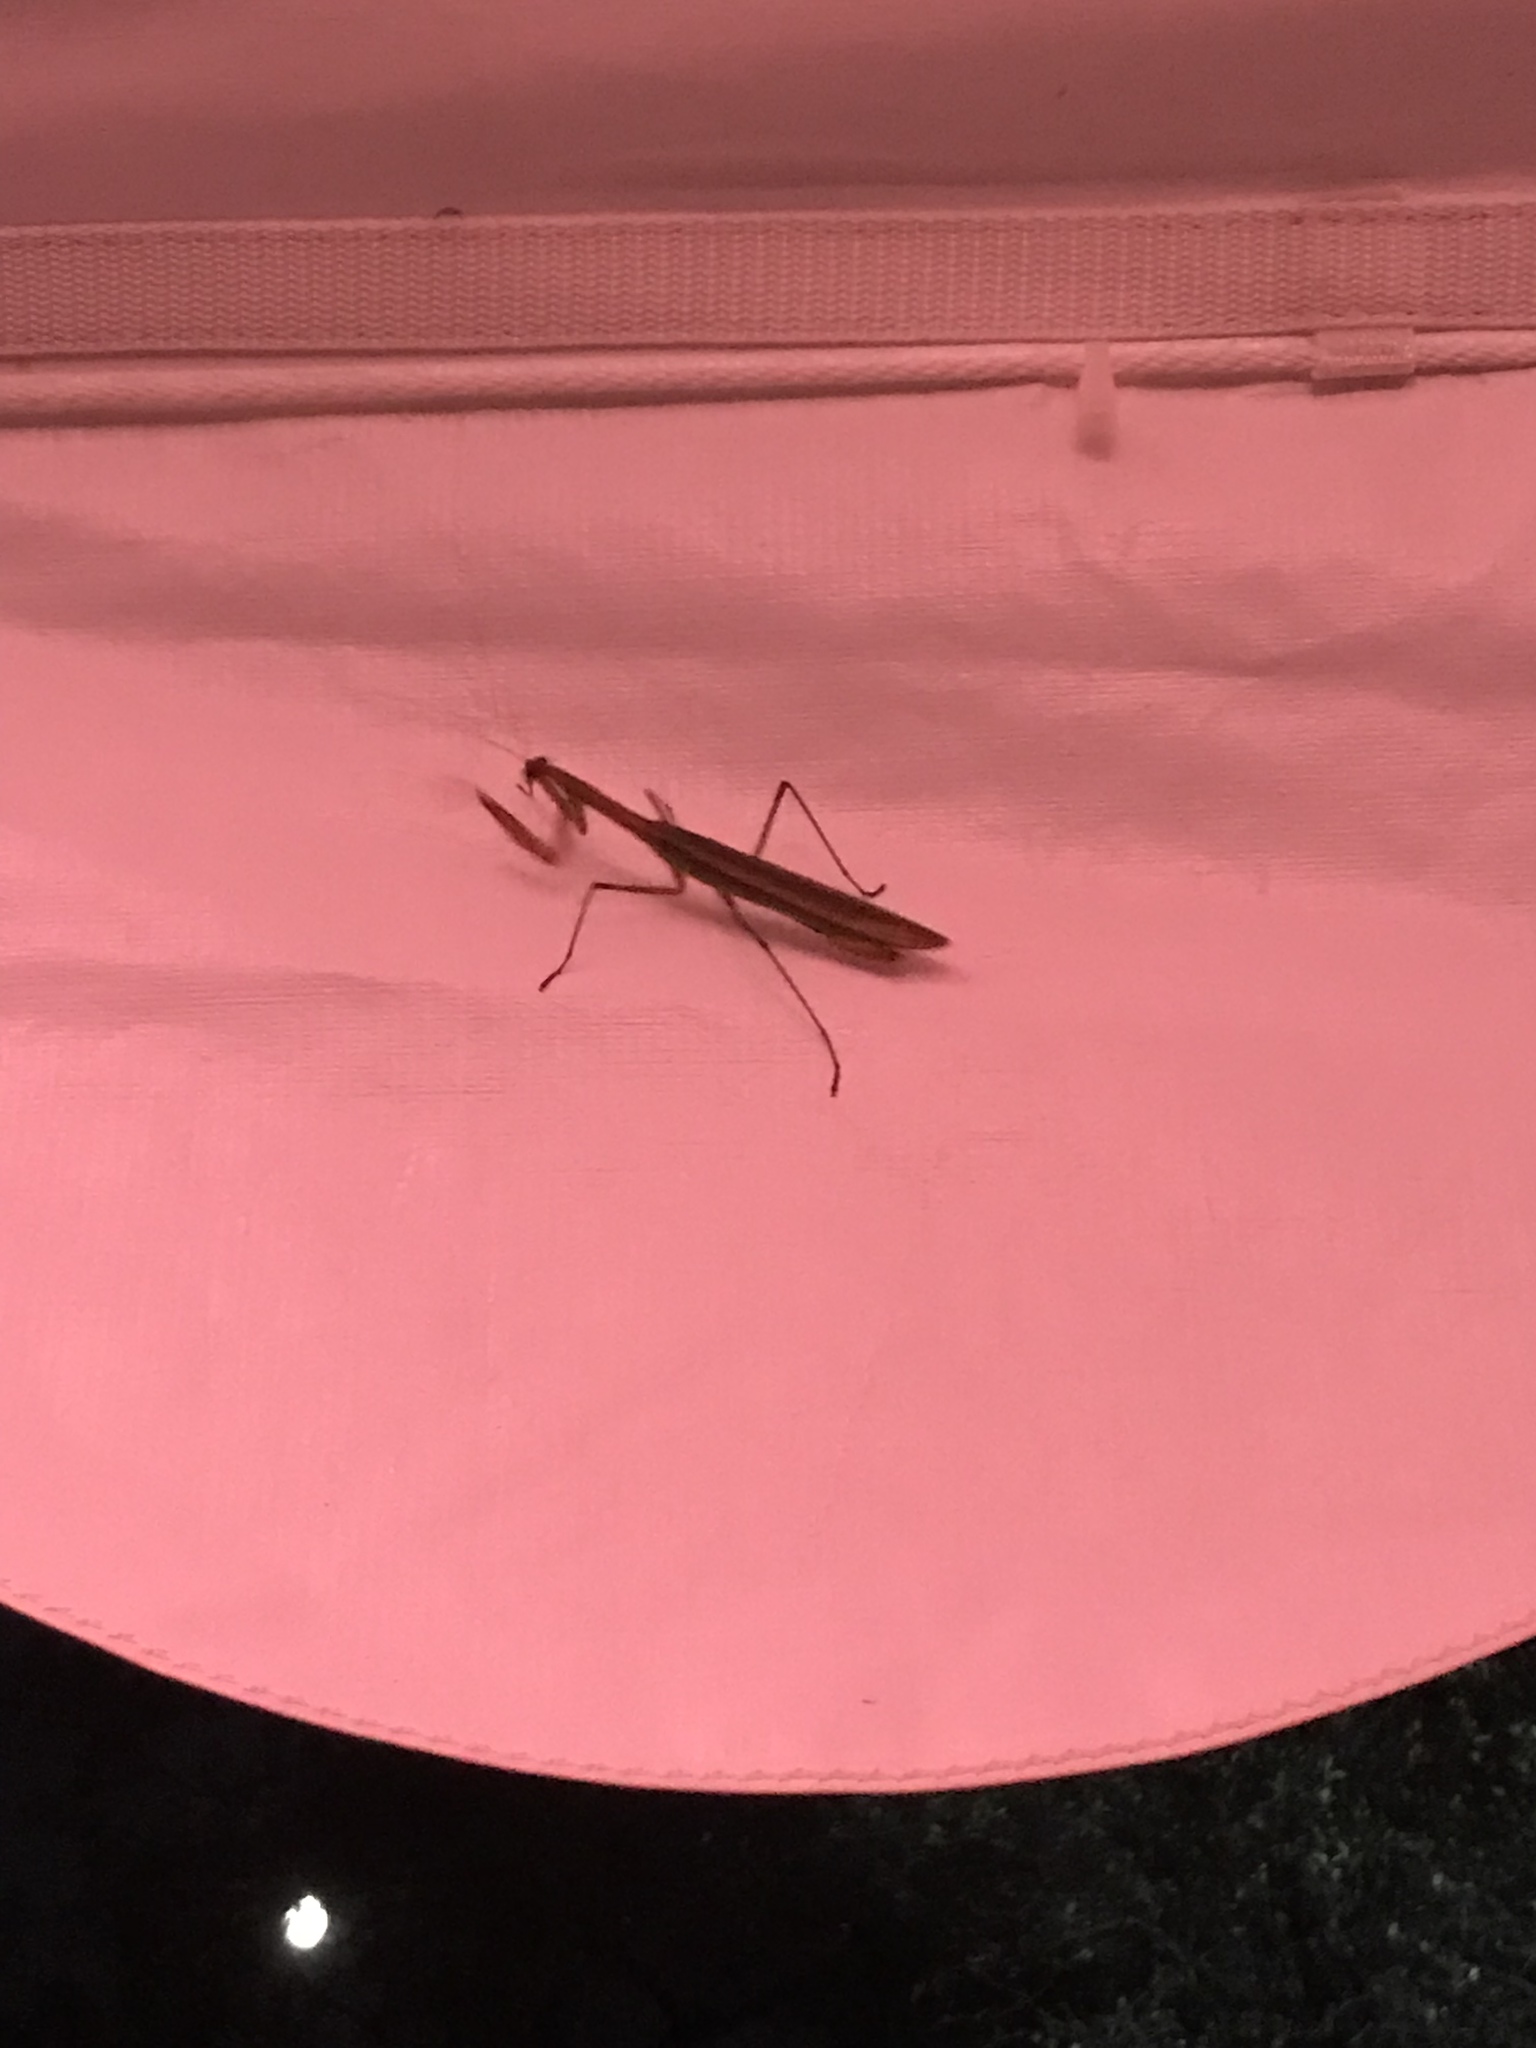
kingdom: Animalia
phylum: Arthropoda
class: Insecta
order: Mantodea
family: Mantidae
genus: Tenodera
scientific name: Tenodera sinensis
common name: Chinese mantis
